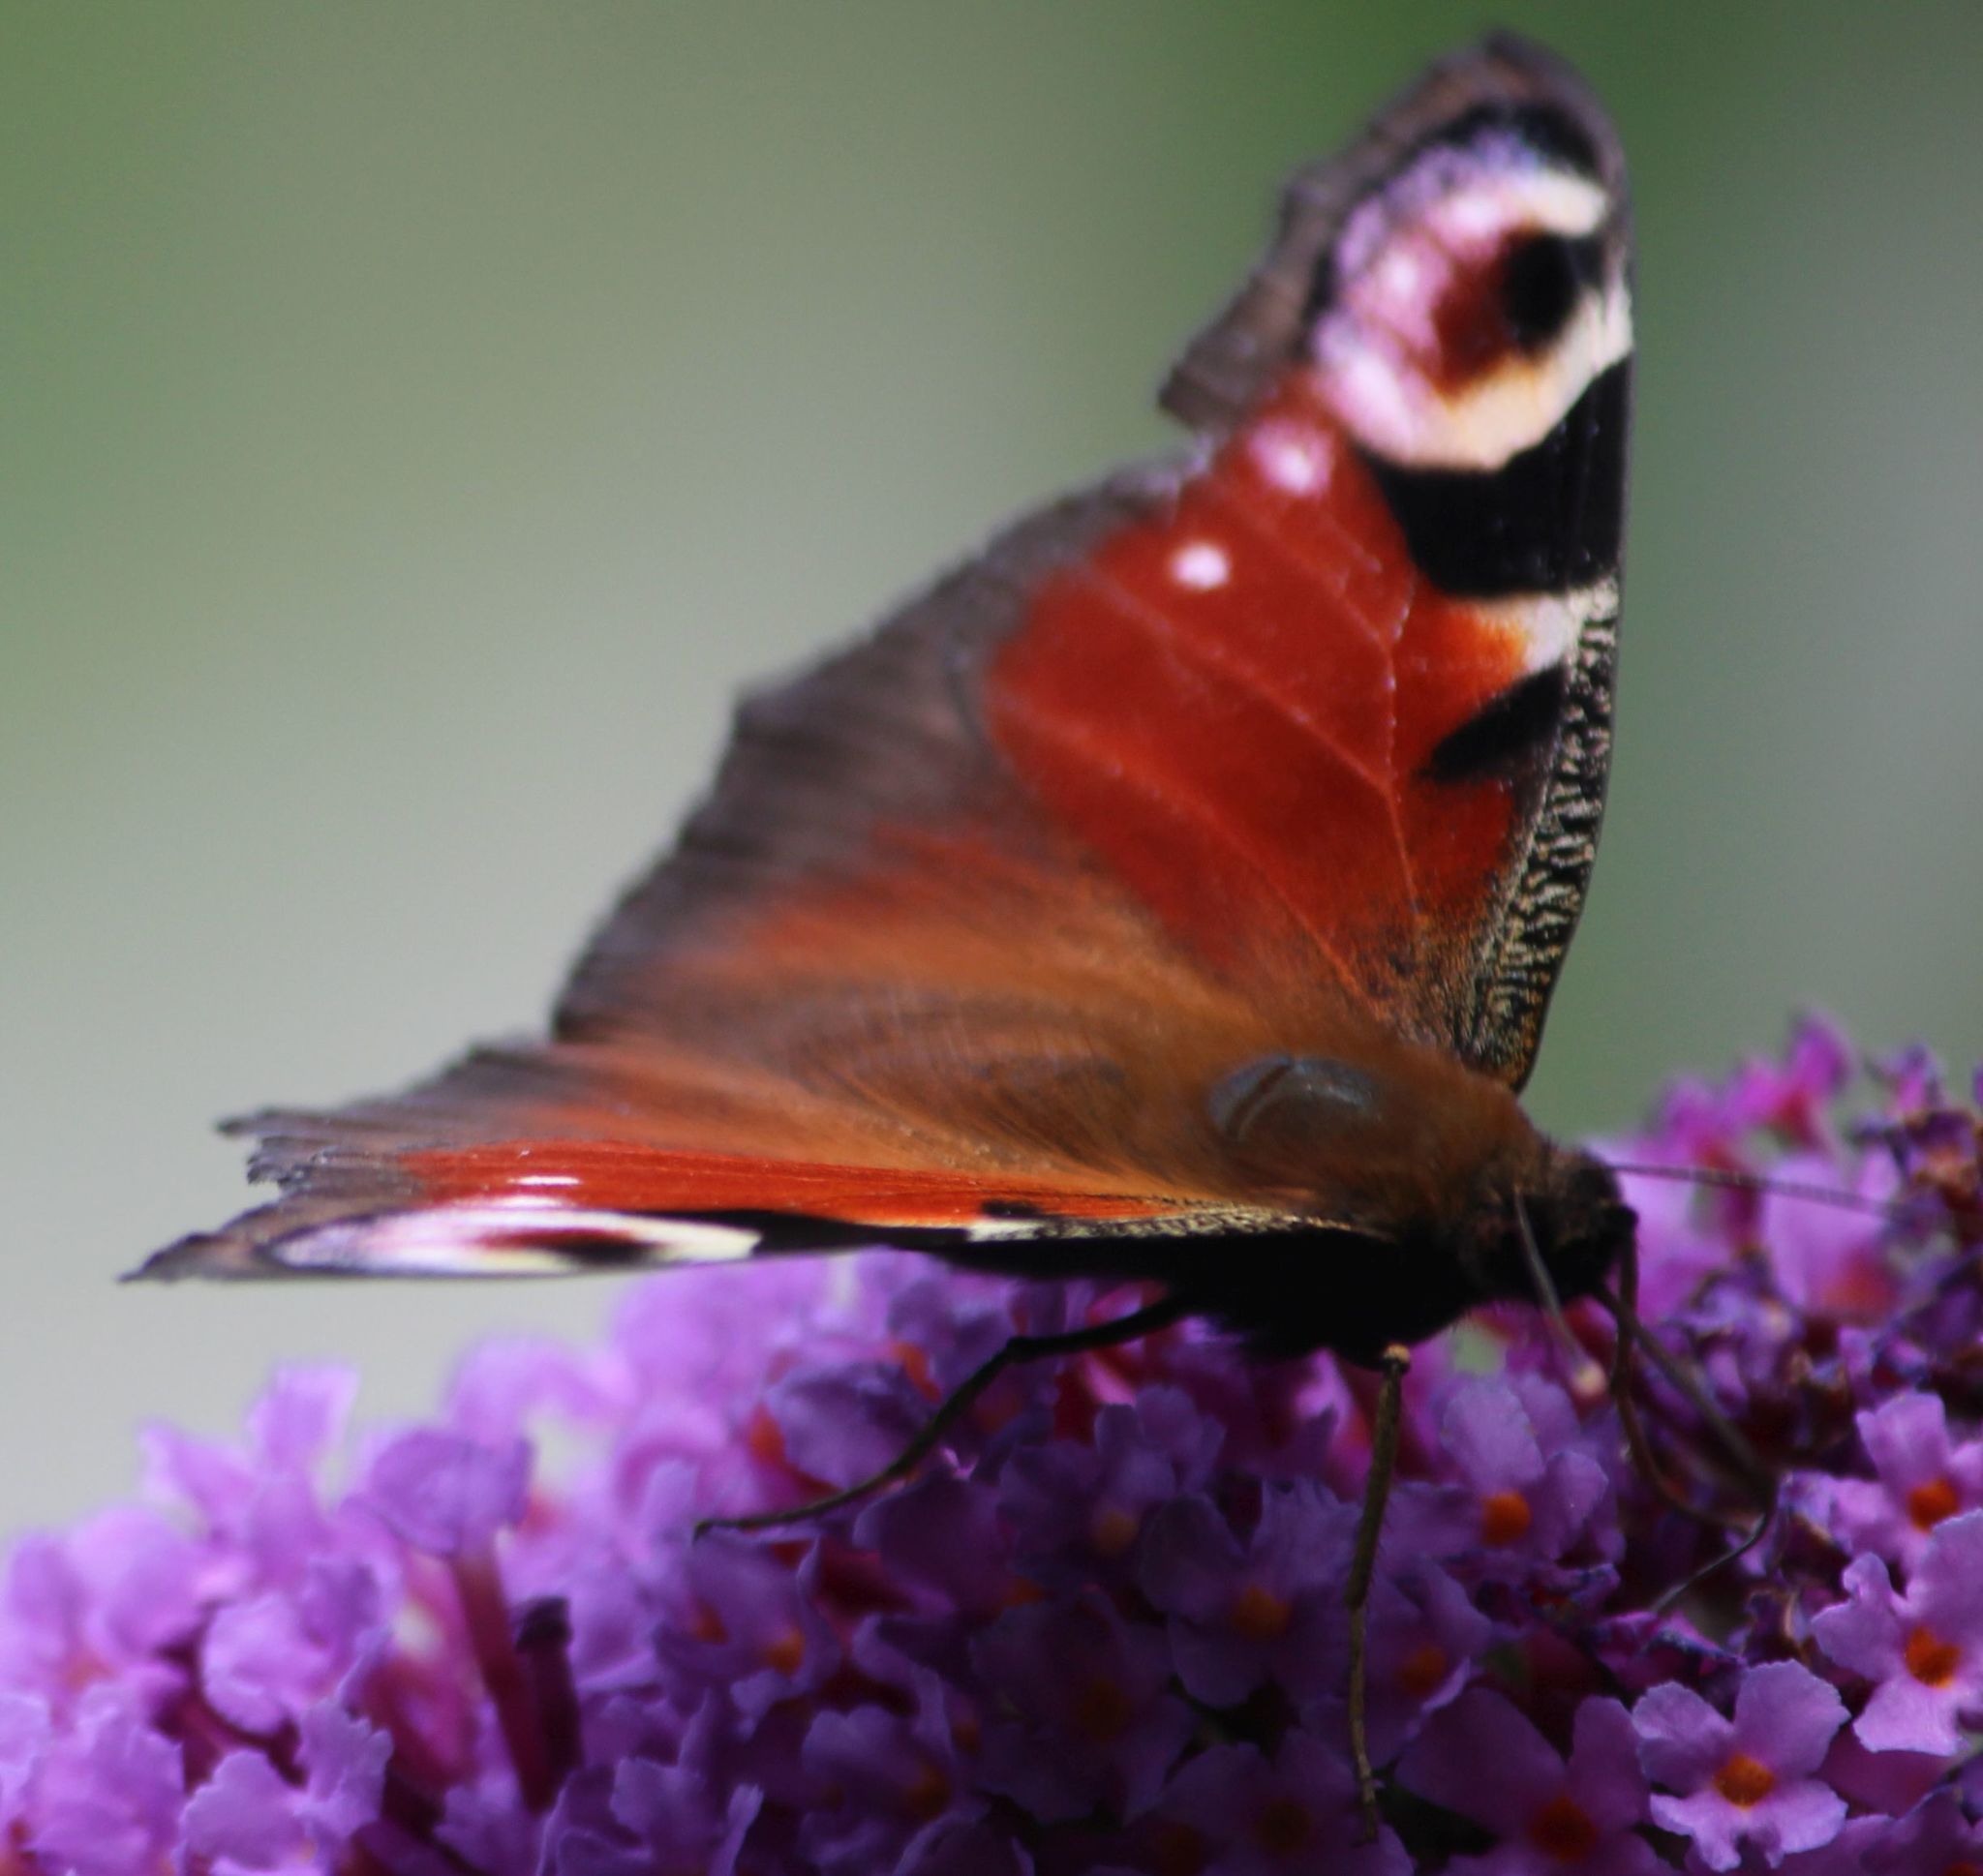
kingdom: Animalia
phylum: Arthropoda
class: Insecta
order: Lepidoptera
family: Nymphalidae
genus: Aglais
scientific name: Aglais io
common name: Peacock
